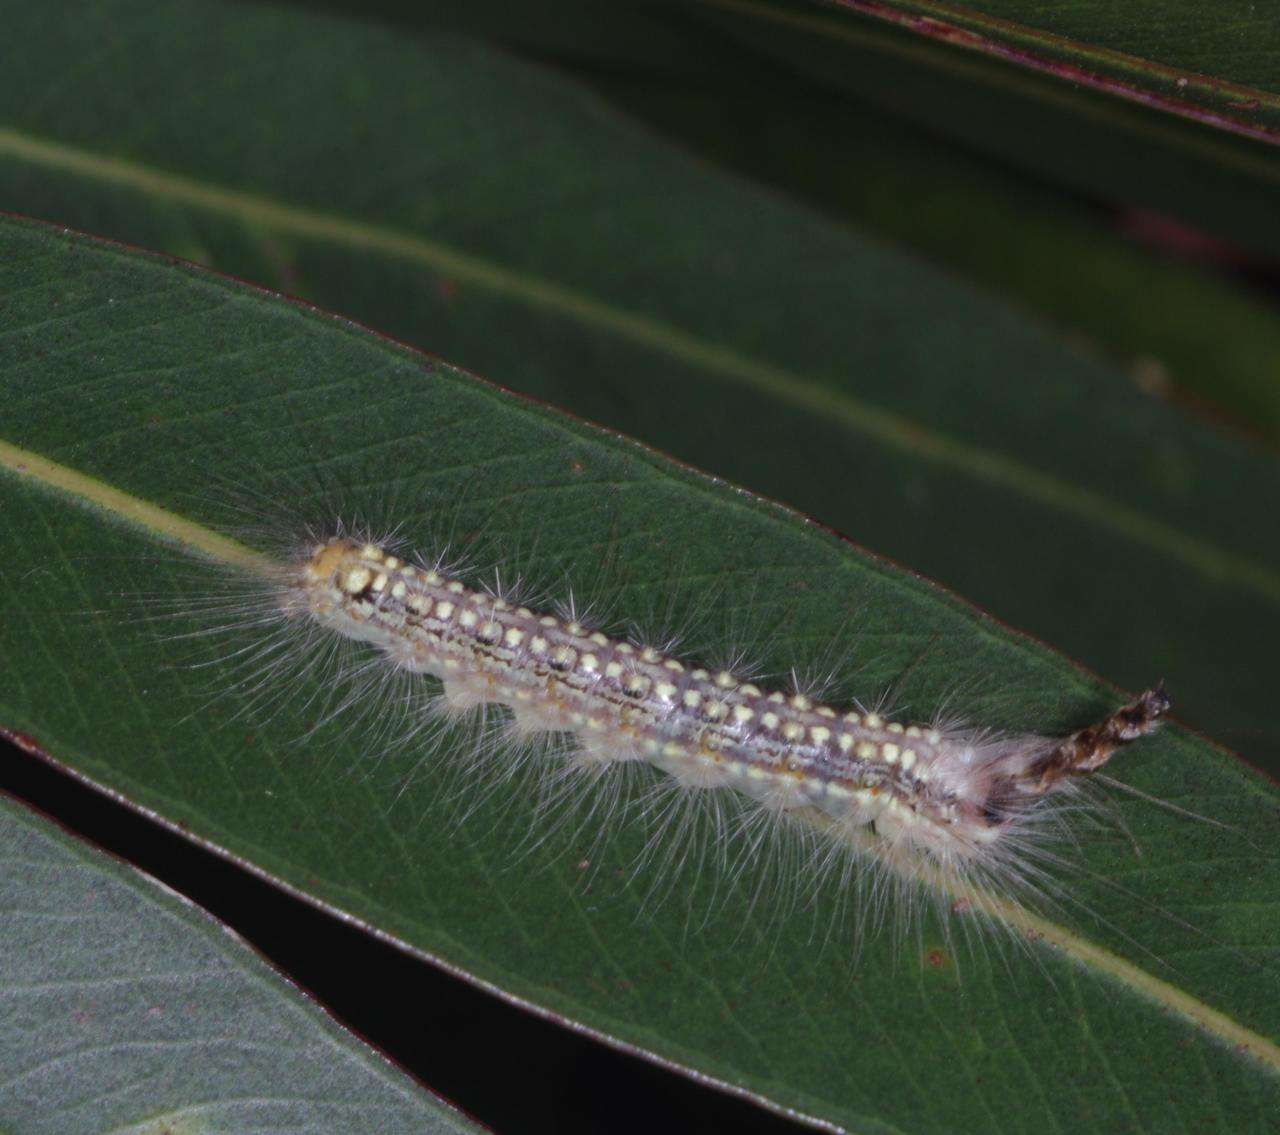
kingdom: Animalia
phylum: Arthropoda
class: Insecta
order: Lepidoptera
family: Nolidae
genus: Uraba
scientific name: Uraba lugens
